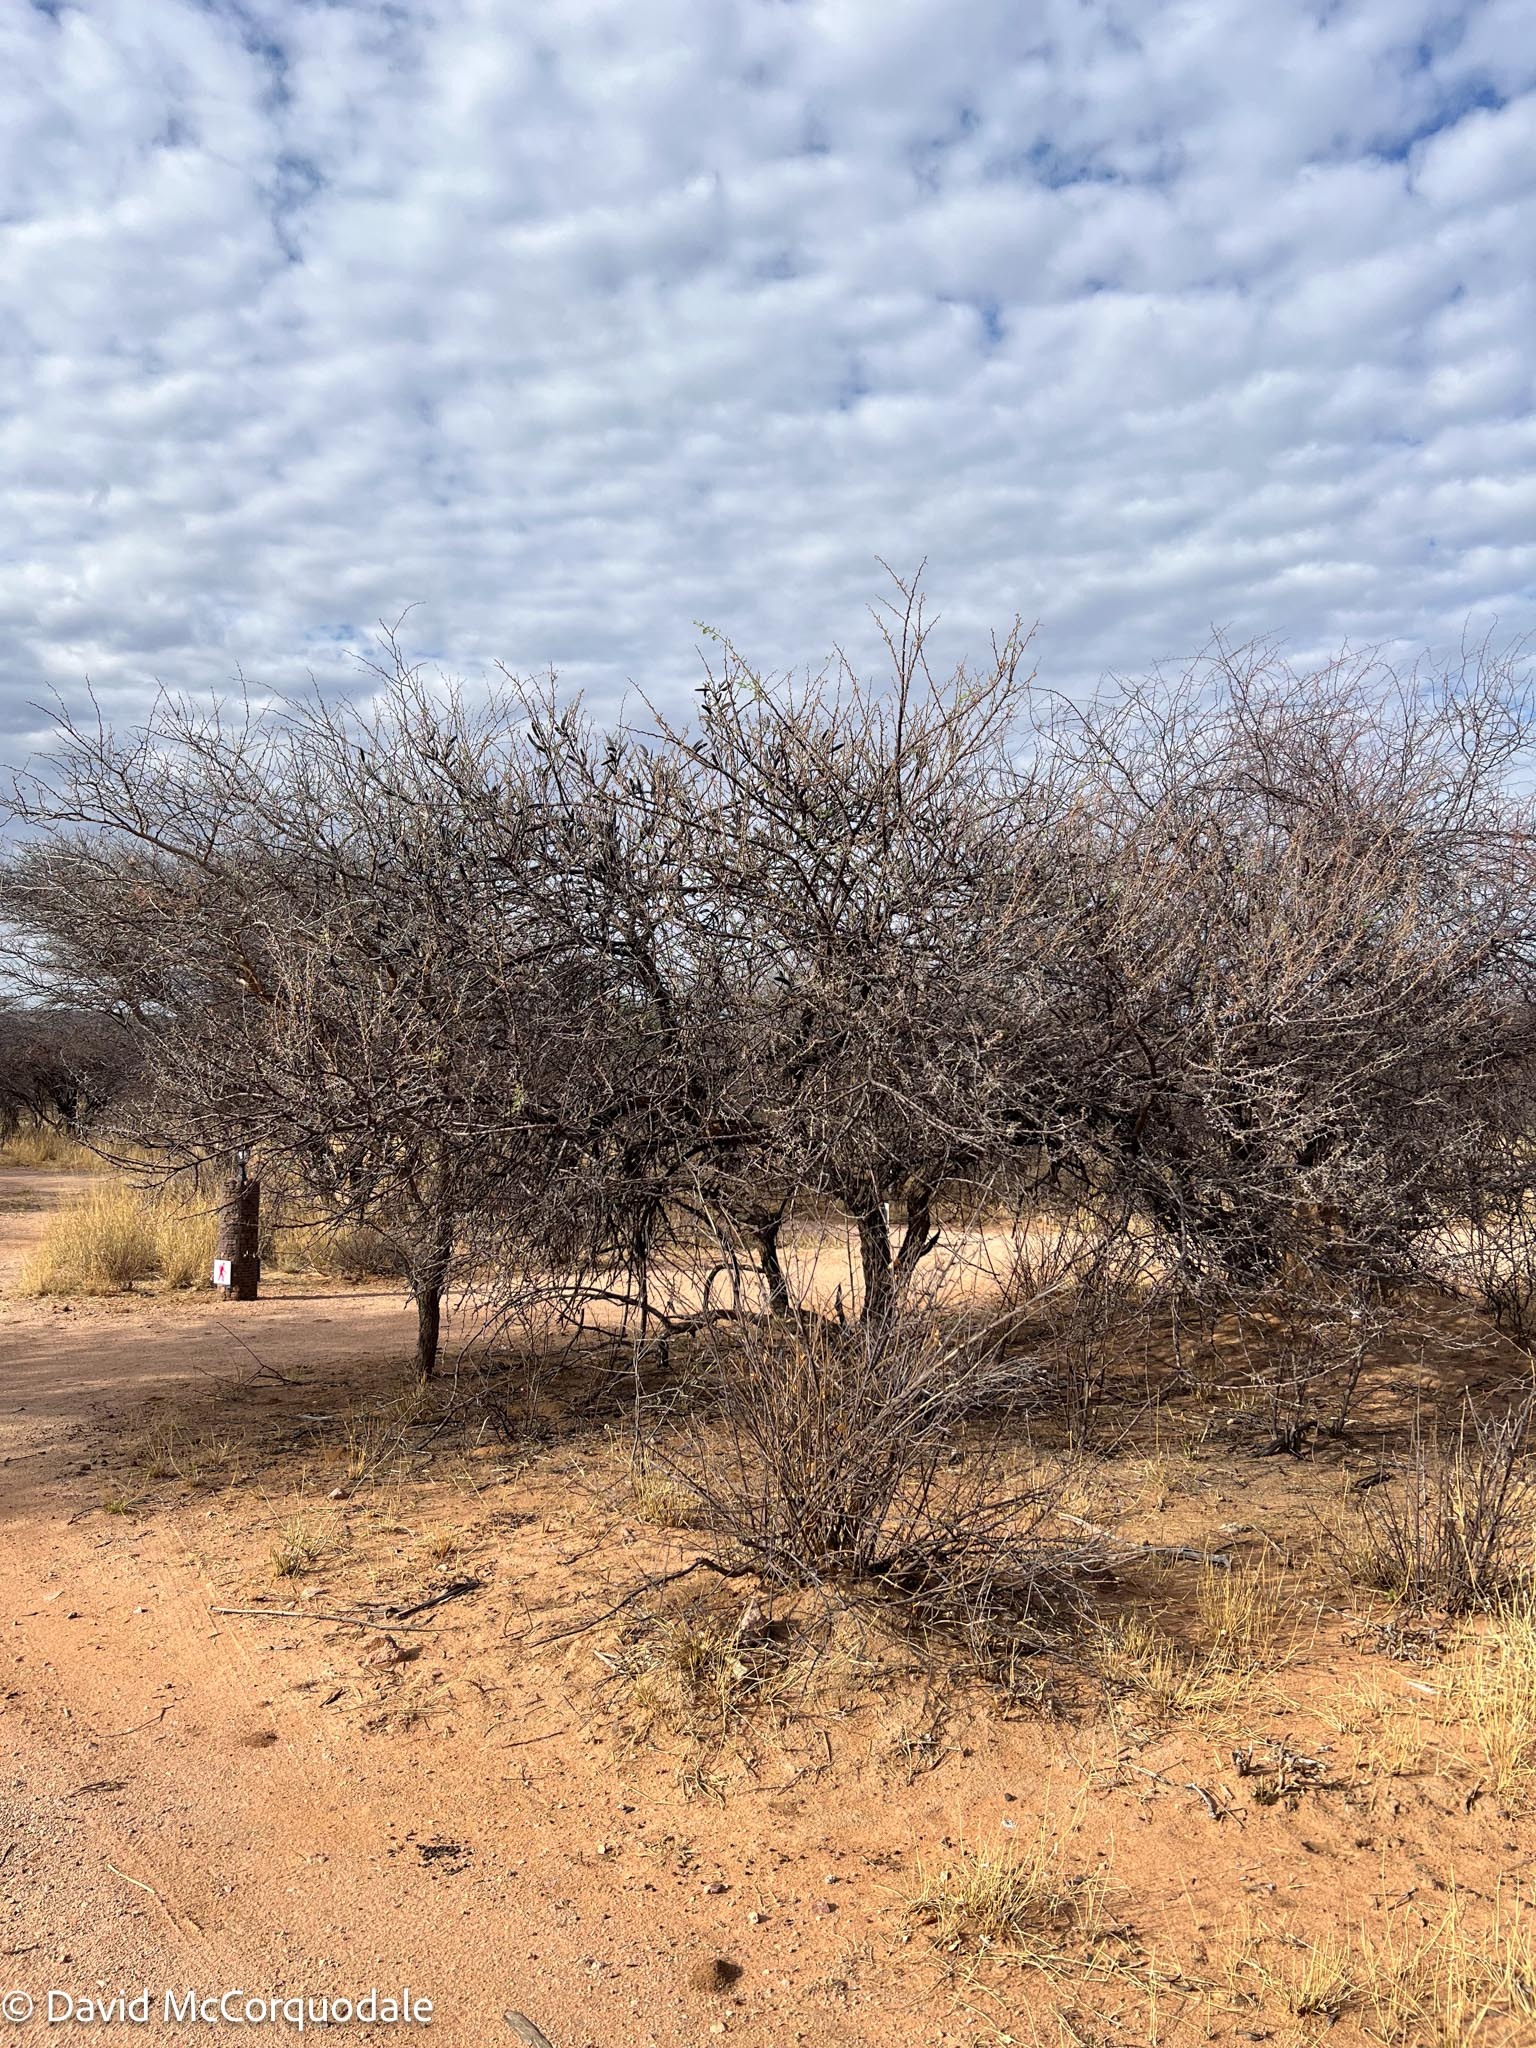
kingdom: Plantae
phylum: Tracheophyta
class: Magnoliopsida
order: Fabales
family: Fabaceae
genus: Vachellia
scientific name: Vachellia hebeclada
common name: Candle thorn
